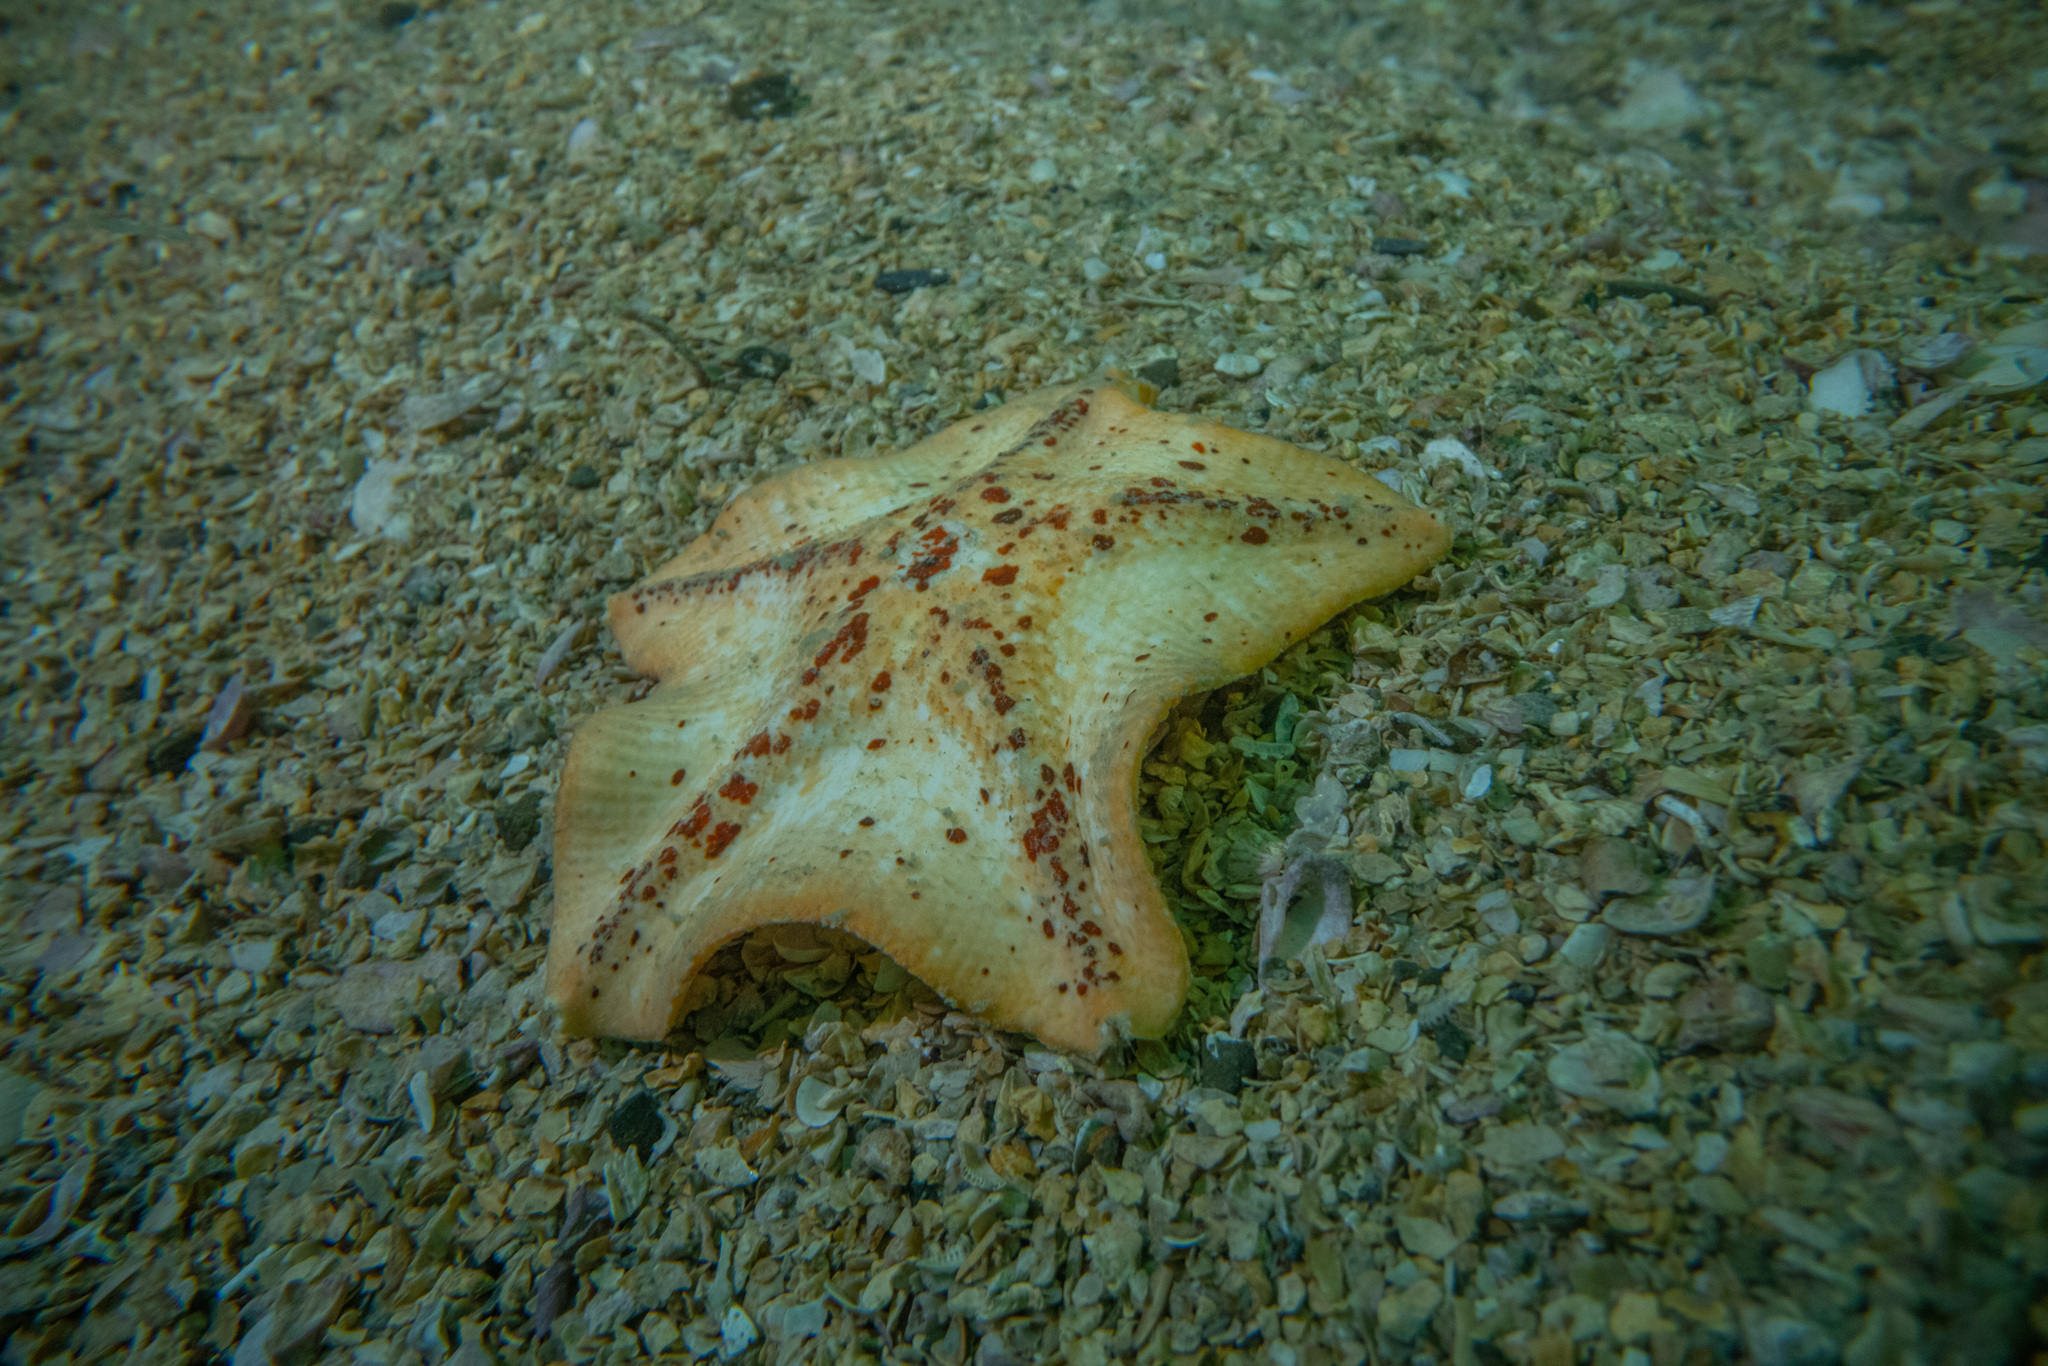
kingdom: Animalia
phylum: Echinodermata
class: Asteroidea
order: Valvatida
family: Asterinidae
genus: Stegnaster
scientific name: Stegnaster inflatus
